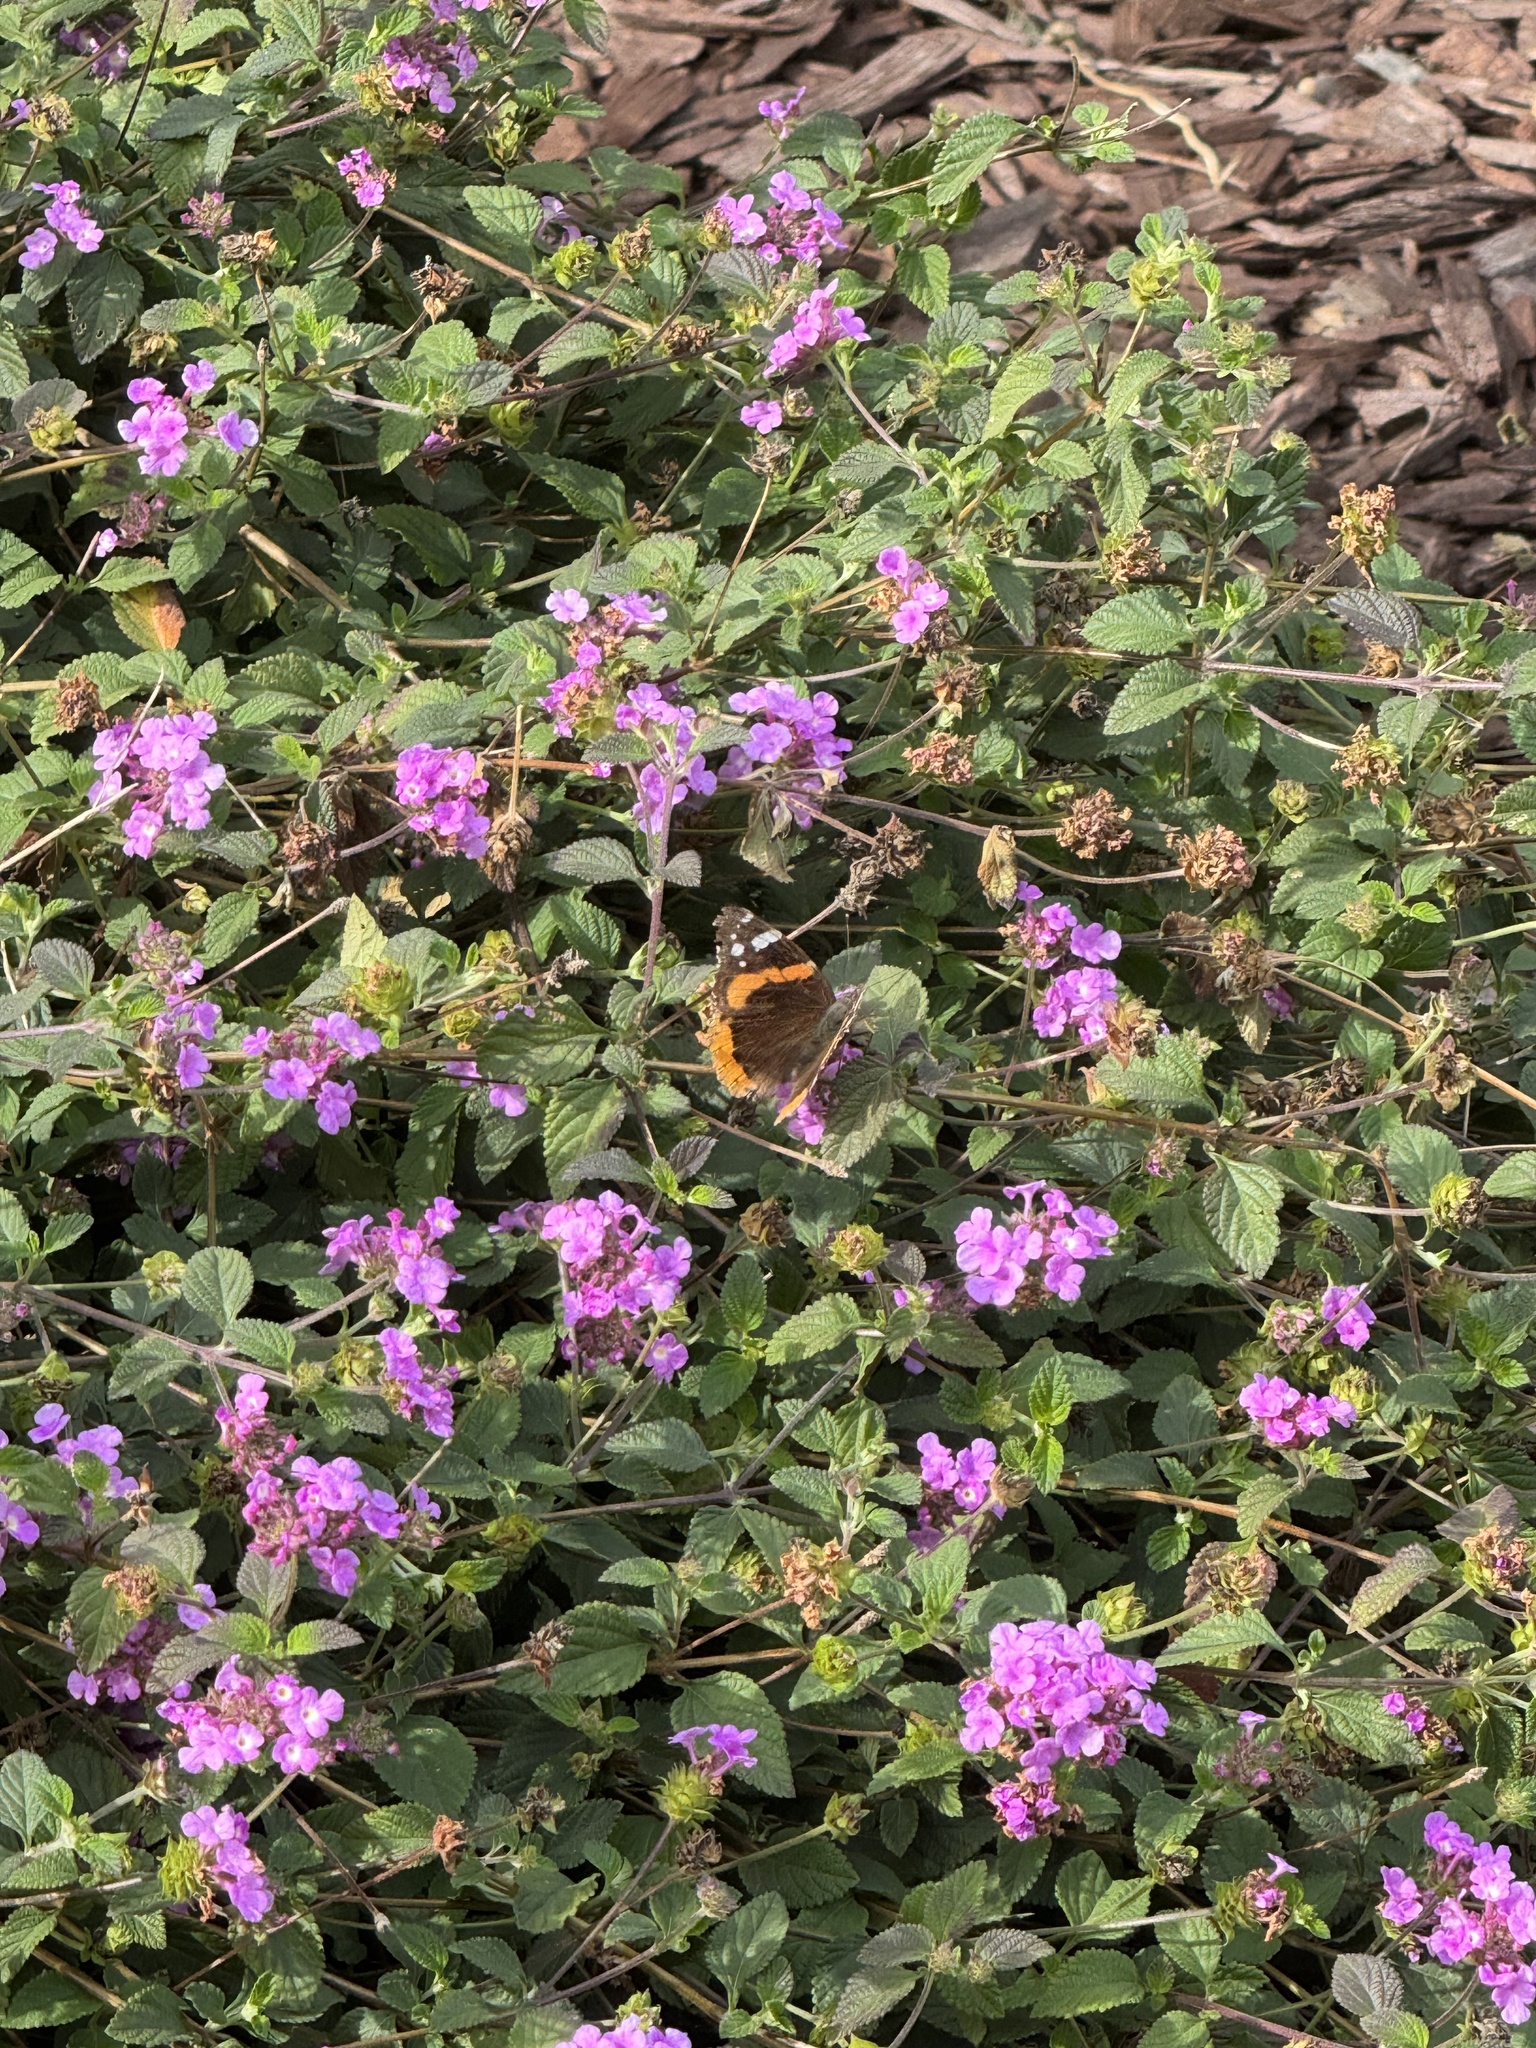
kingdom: Animalia
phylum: Arthropoda
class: Insecta
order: Lepidoptera
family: Nymphalidae
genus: Vanessa
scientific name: Vanessa atalanta
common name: Red admiral
